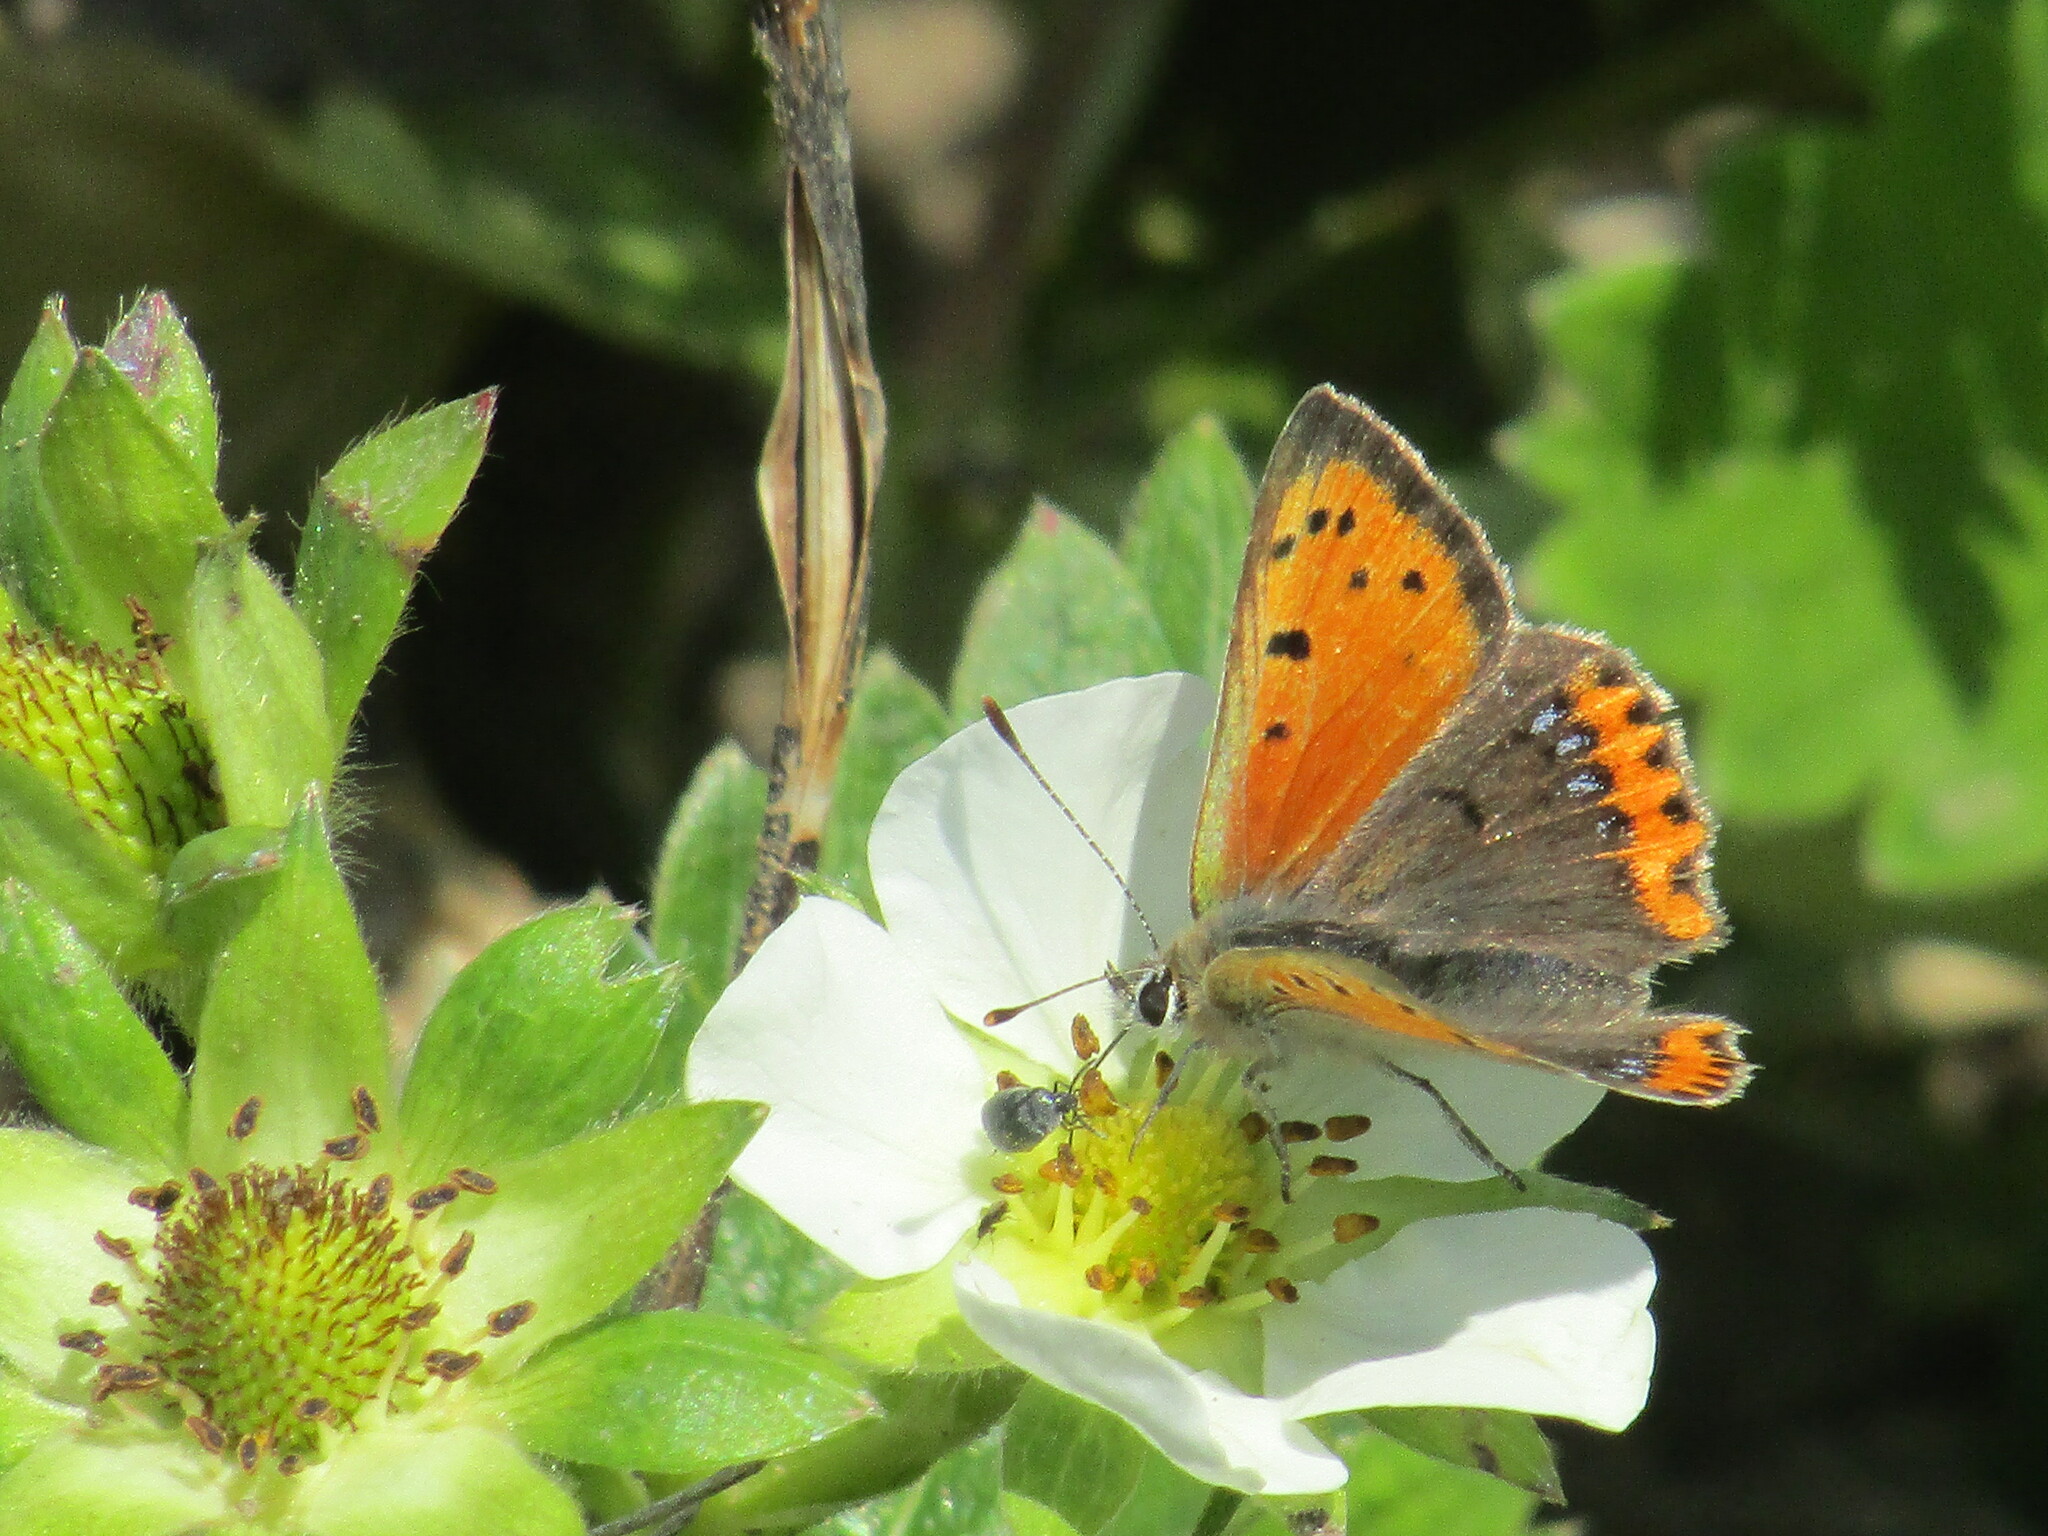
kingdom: Animalia
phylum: Arthropoda
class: Insecta
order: Lepidoptera
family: Lycaenidae
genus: Lycaena
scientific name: Lycaena phlaeas
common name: Small copper
